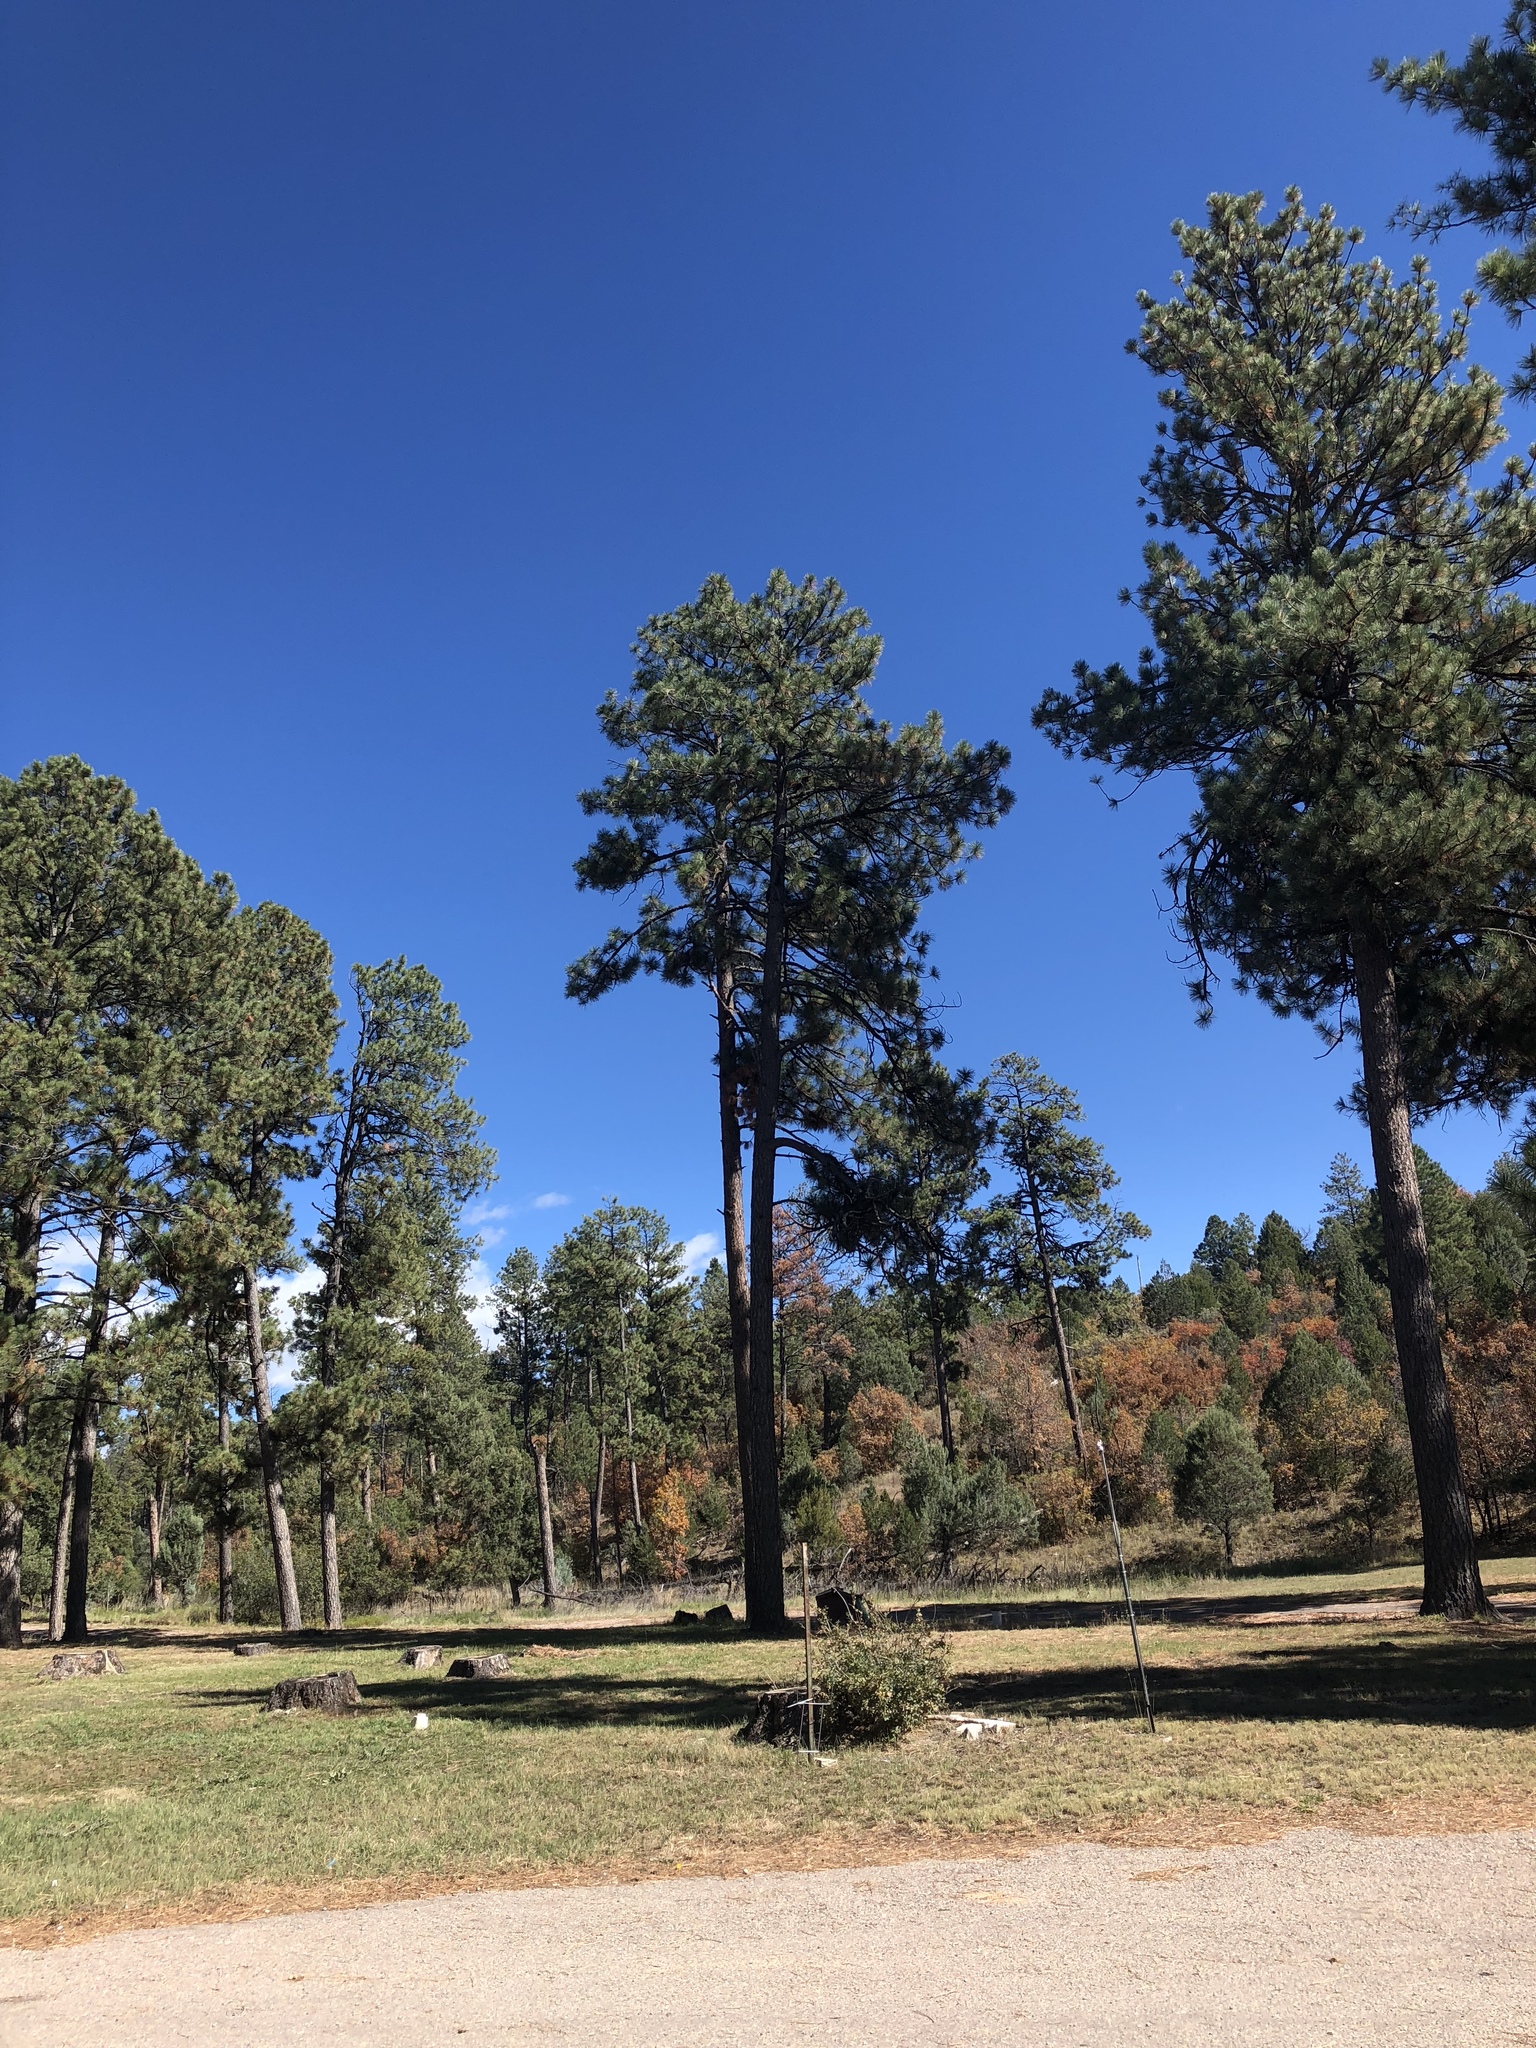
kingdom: Plantae
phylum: Tracheophyta
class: Pinopsida
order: Pinales
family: Pinaceae
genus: Pinus
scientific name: Pinus ponderosa
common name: Western yellow-pine
